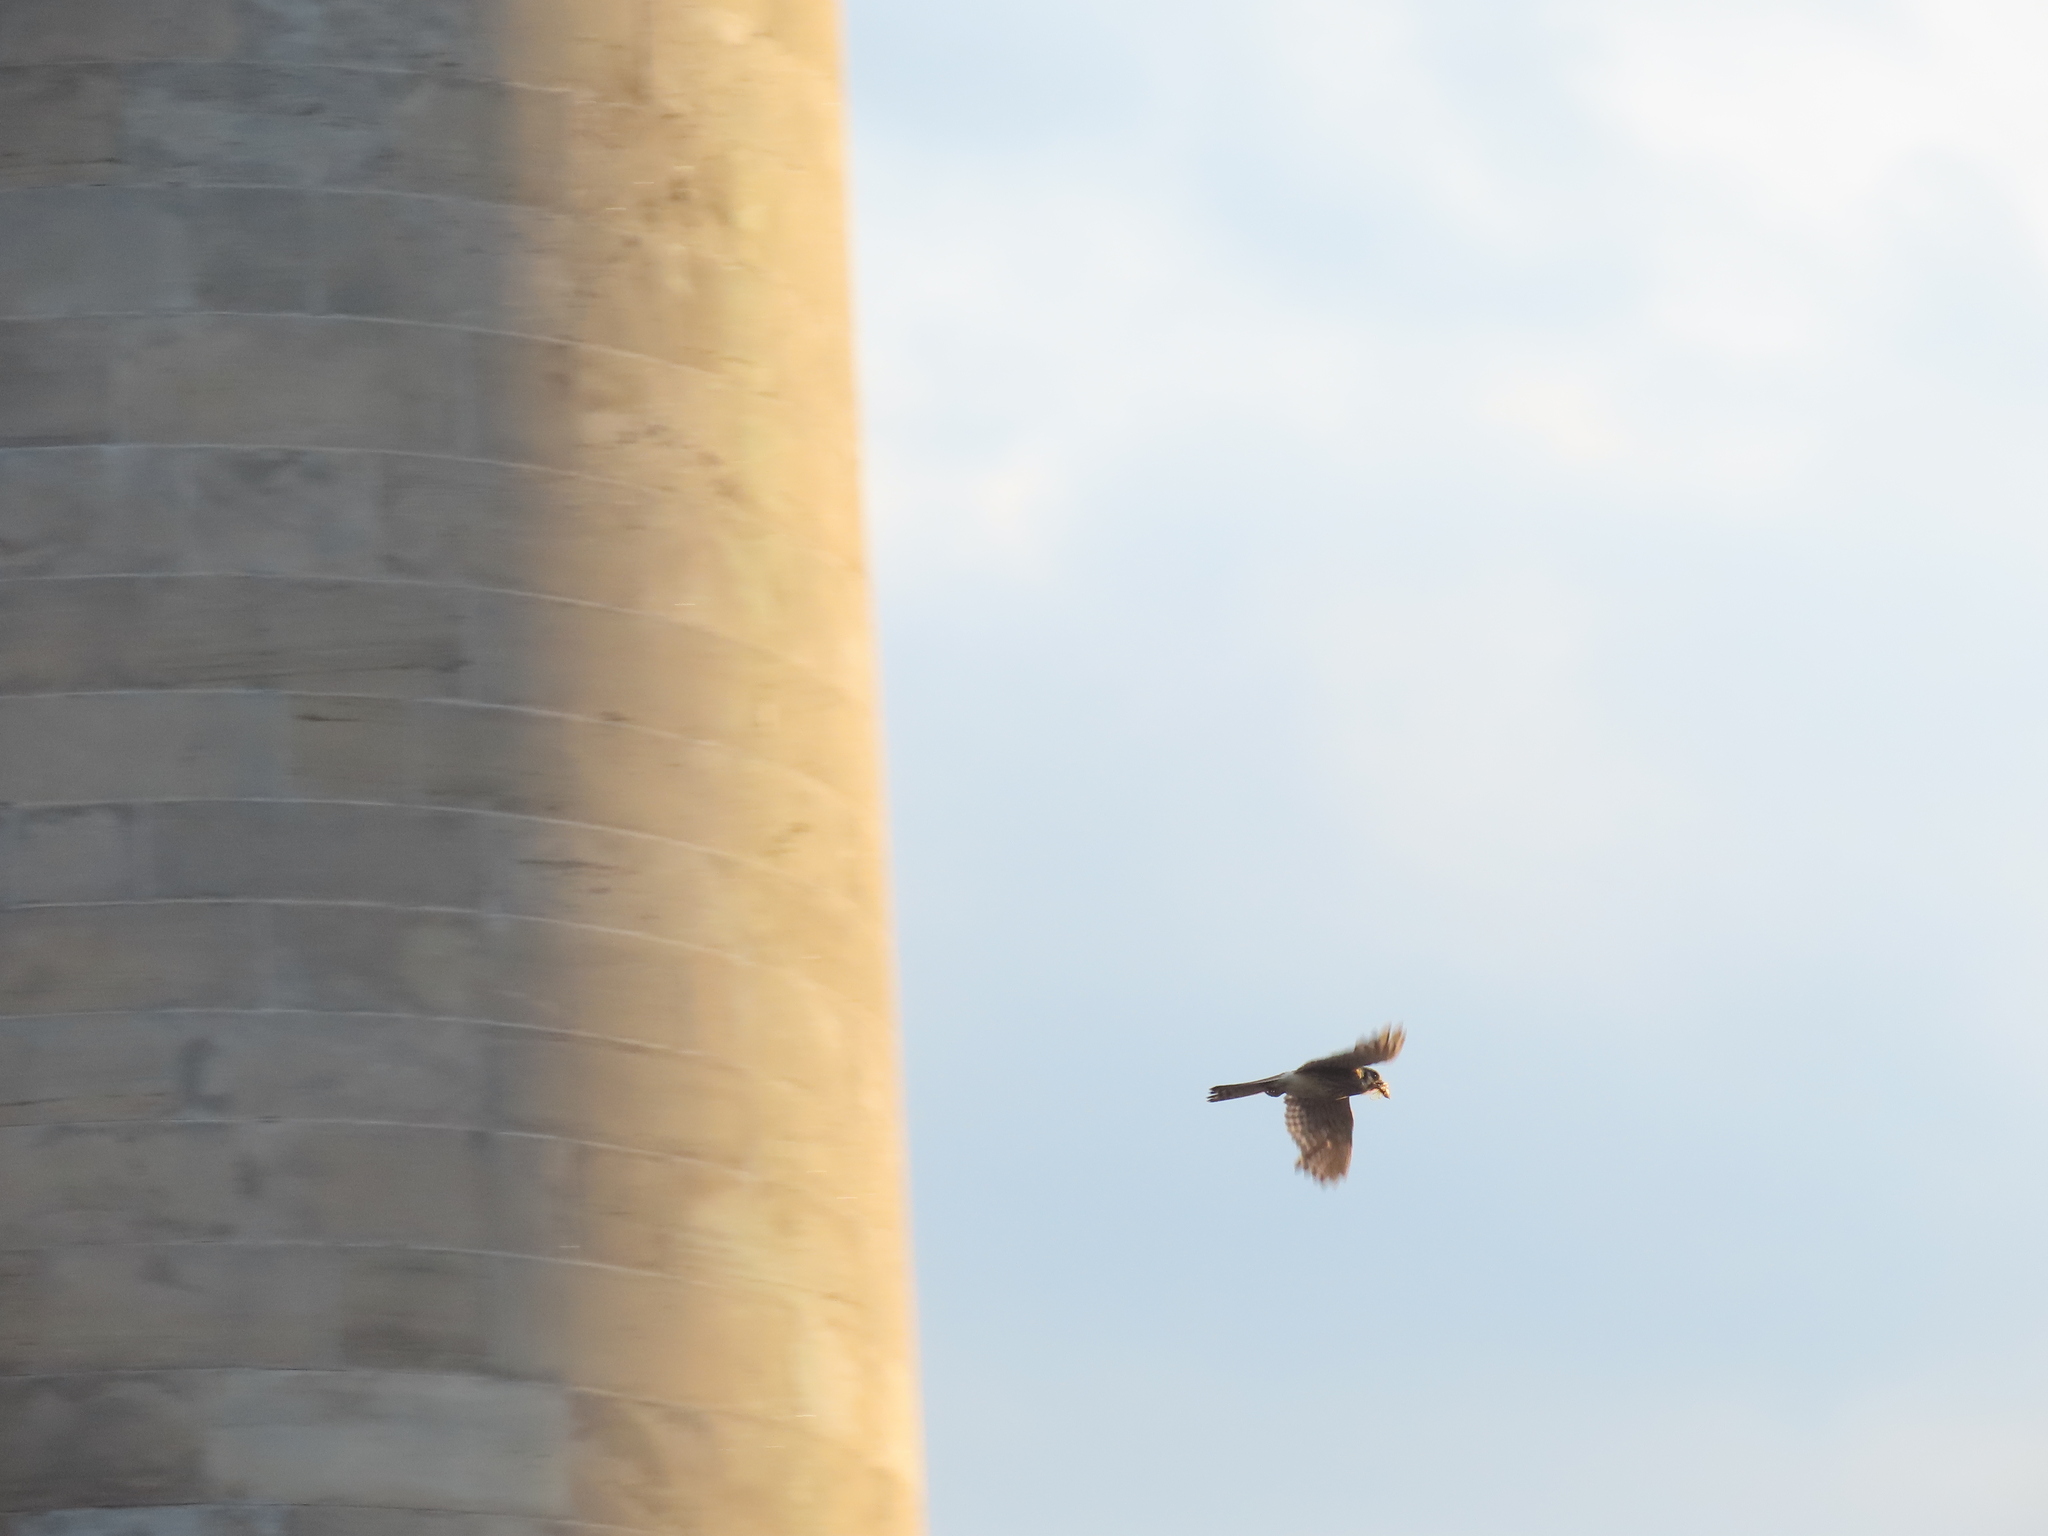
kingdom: Animalia
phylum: Chordata
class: Aves
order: Falconiformes
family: Falconidae
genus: Falco
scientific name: Falco sparverius
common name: American kestrel
